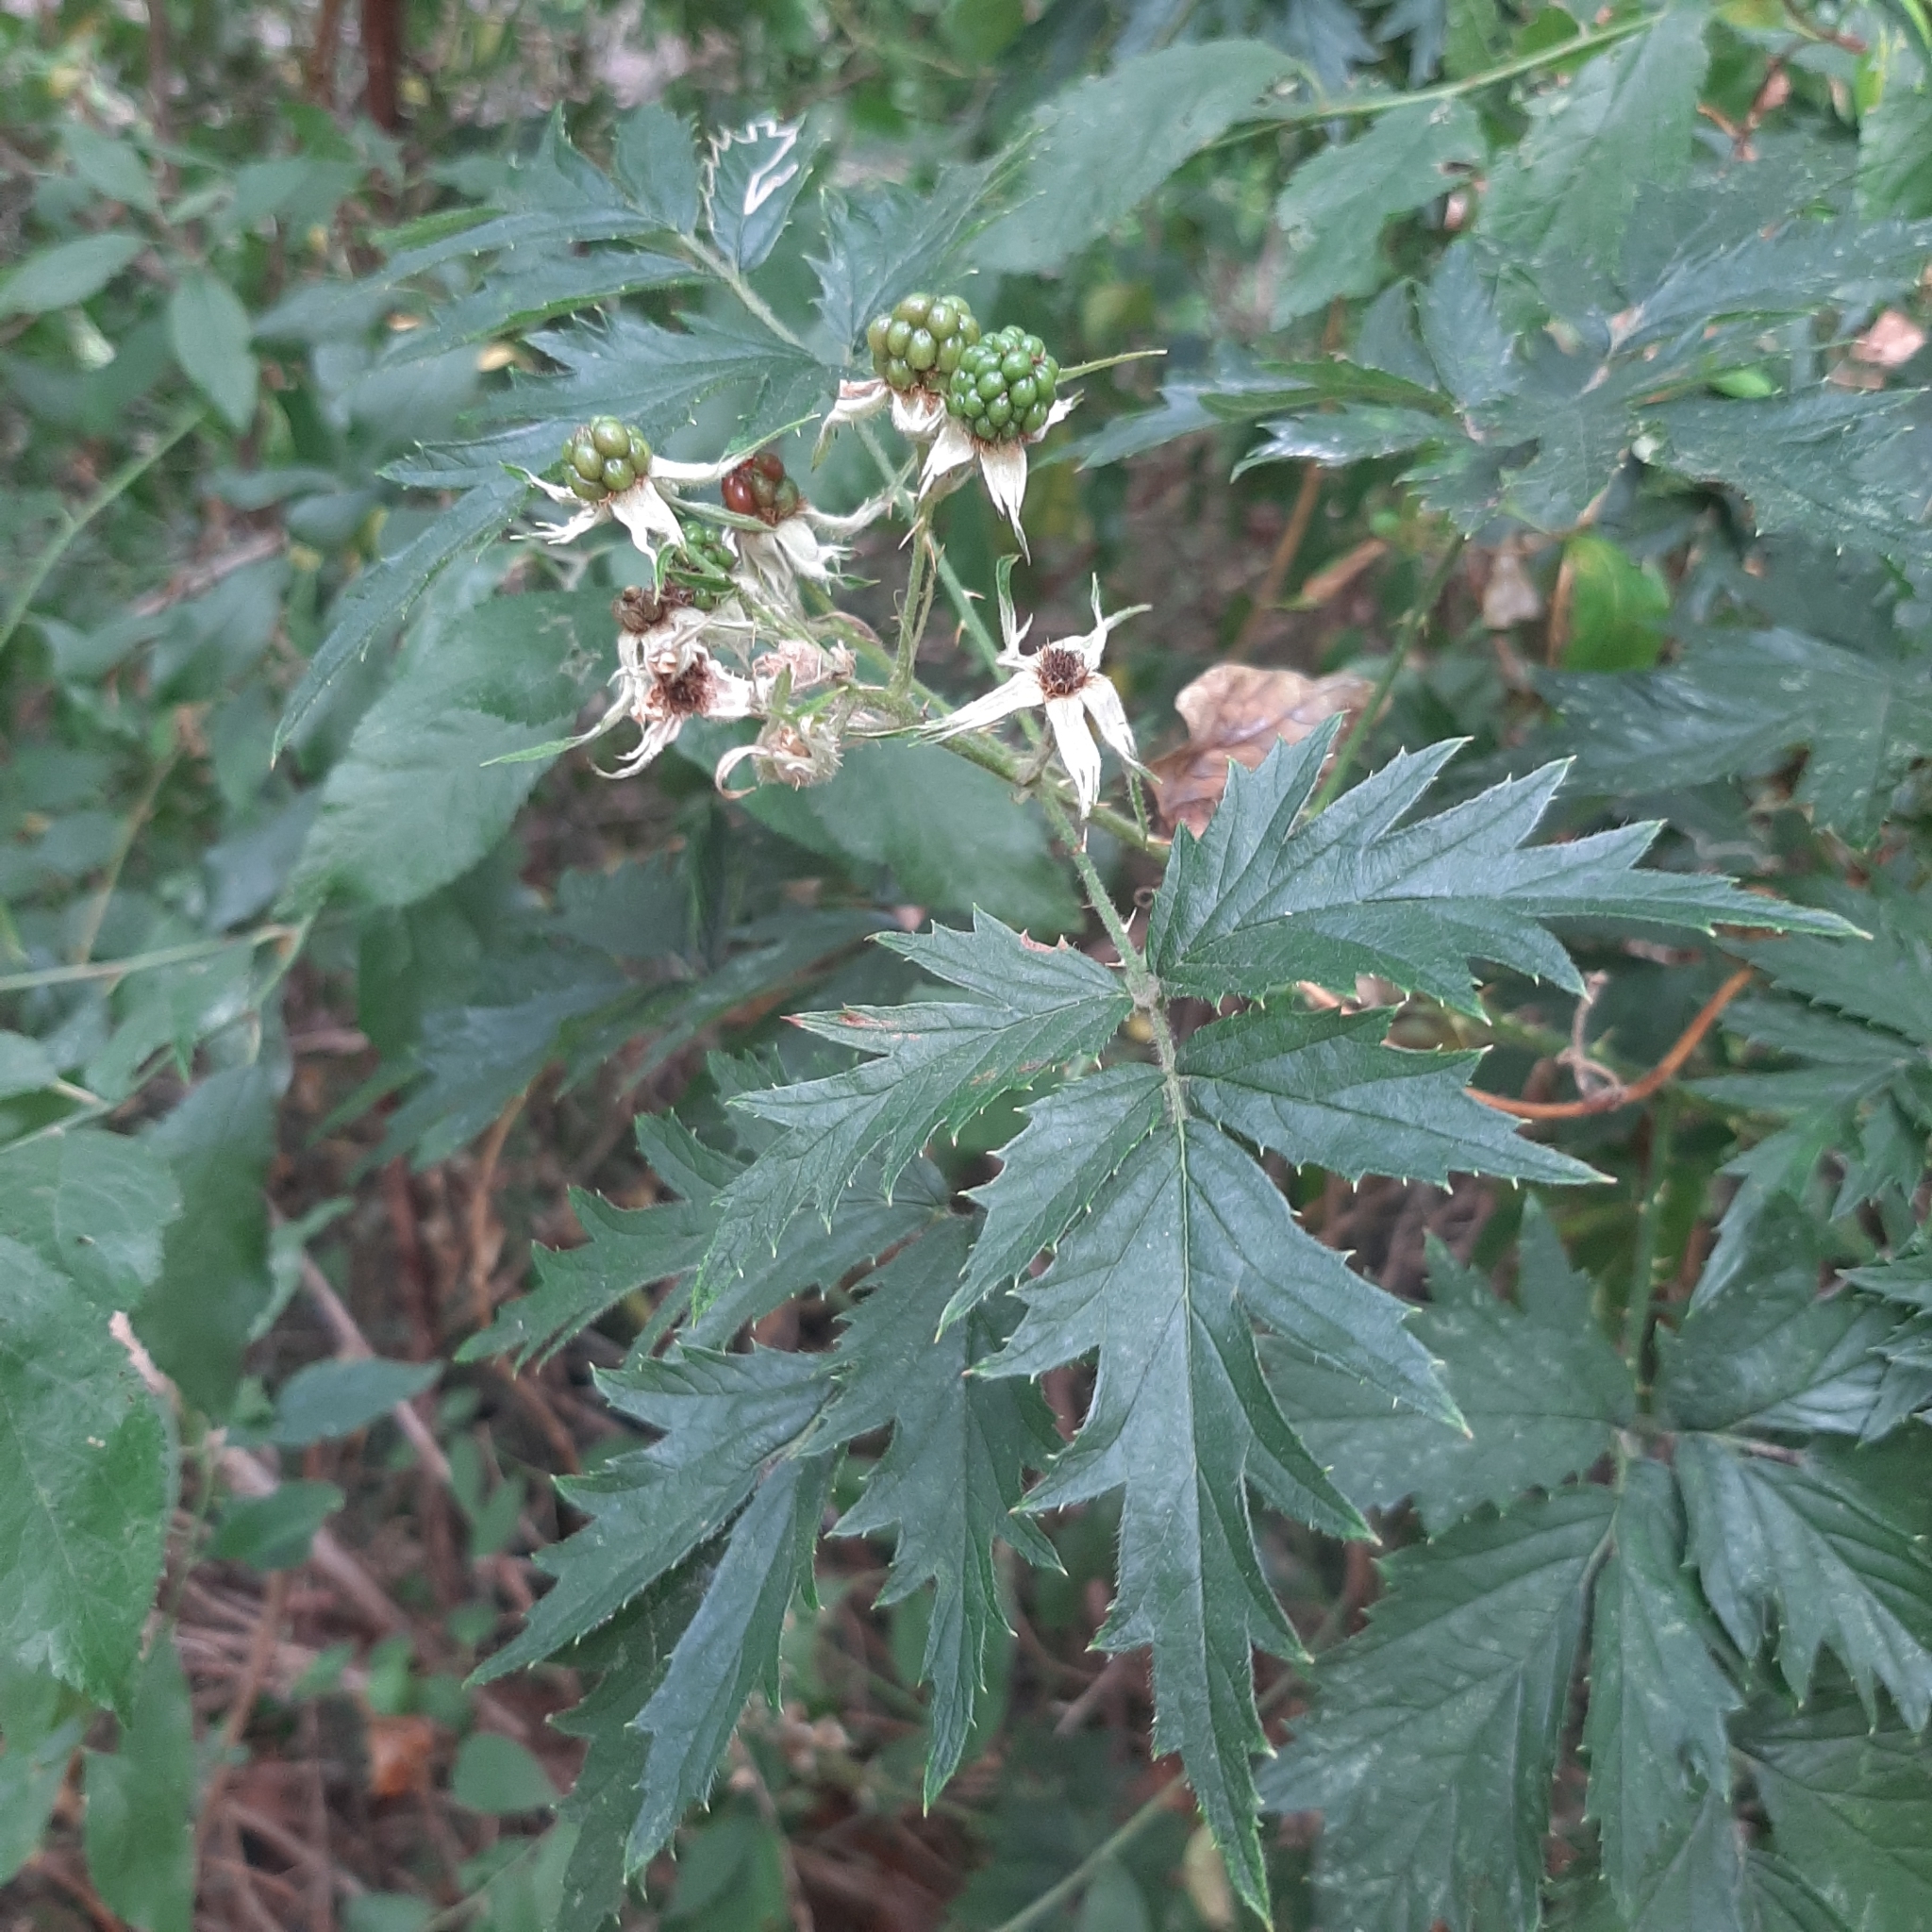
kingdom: Plantae
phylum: Tracheophyta
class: Magnoliopsida
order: Rosales
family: Rosaceae
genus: Rubus
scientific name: Rubus laciniatus
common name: Evergreen blackberry
